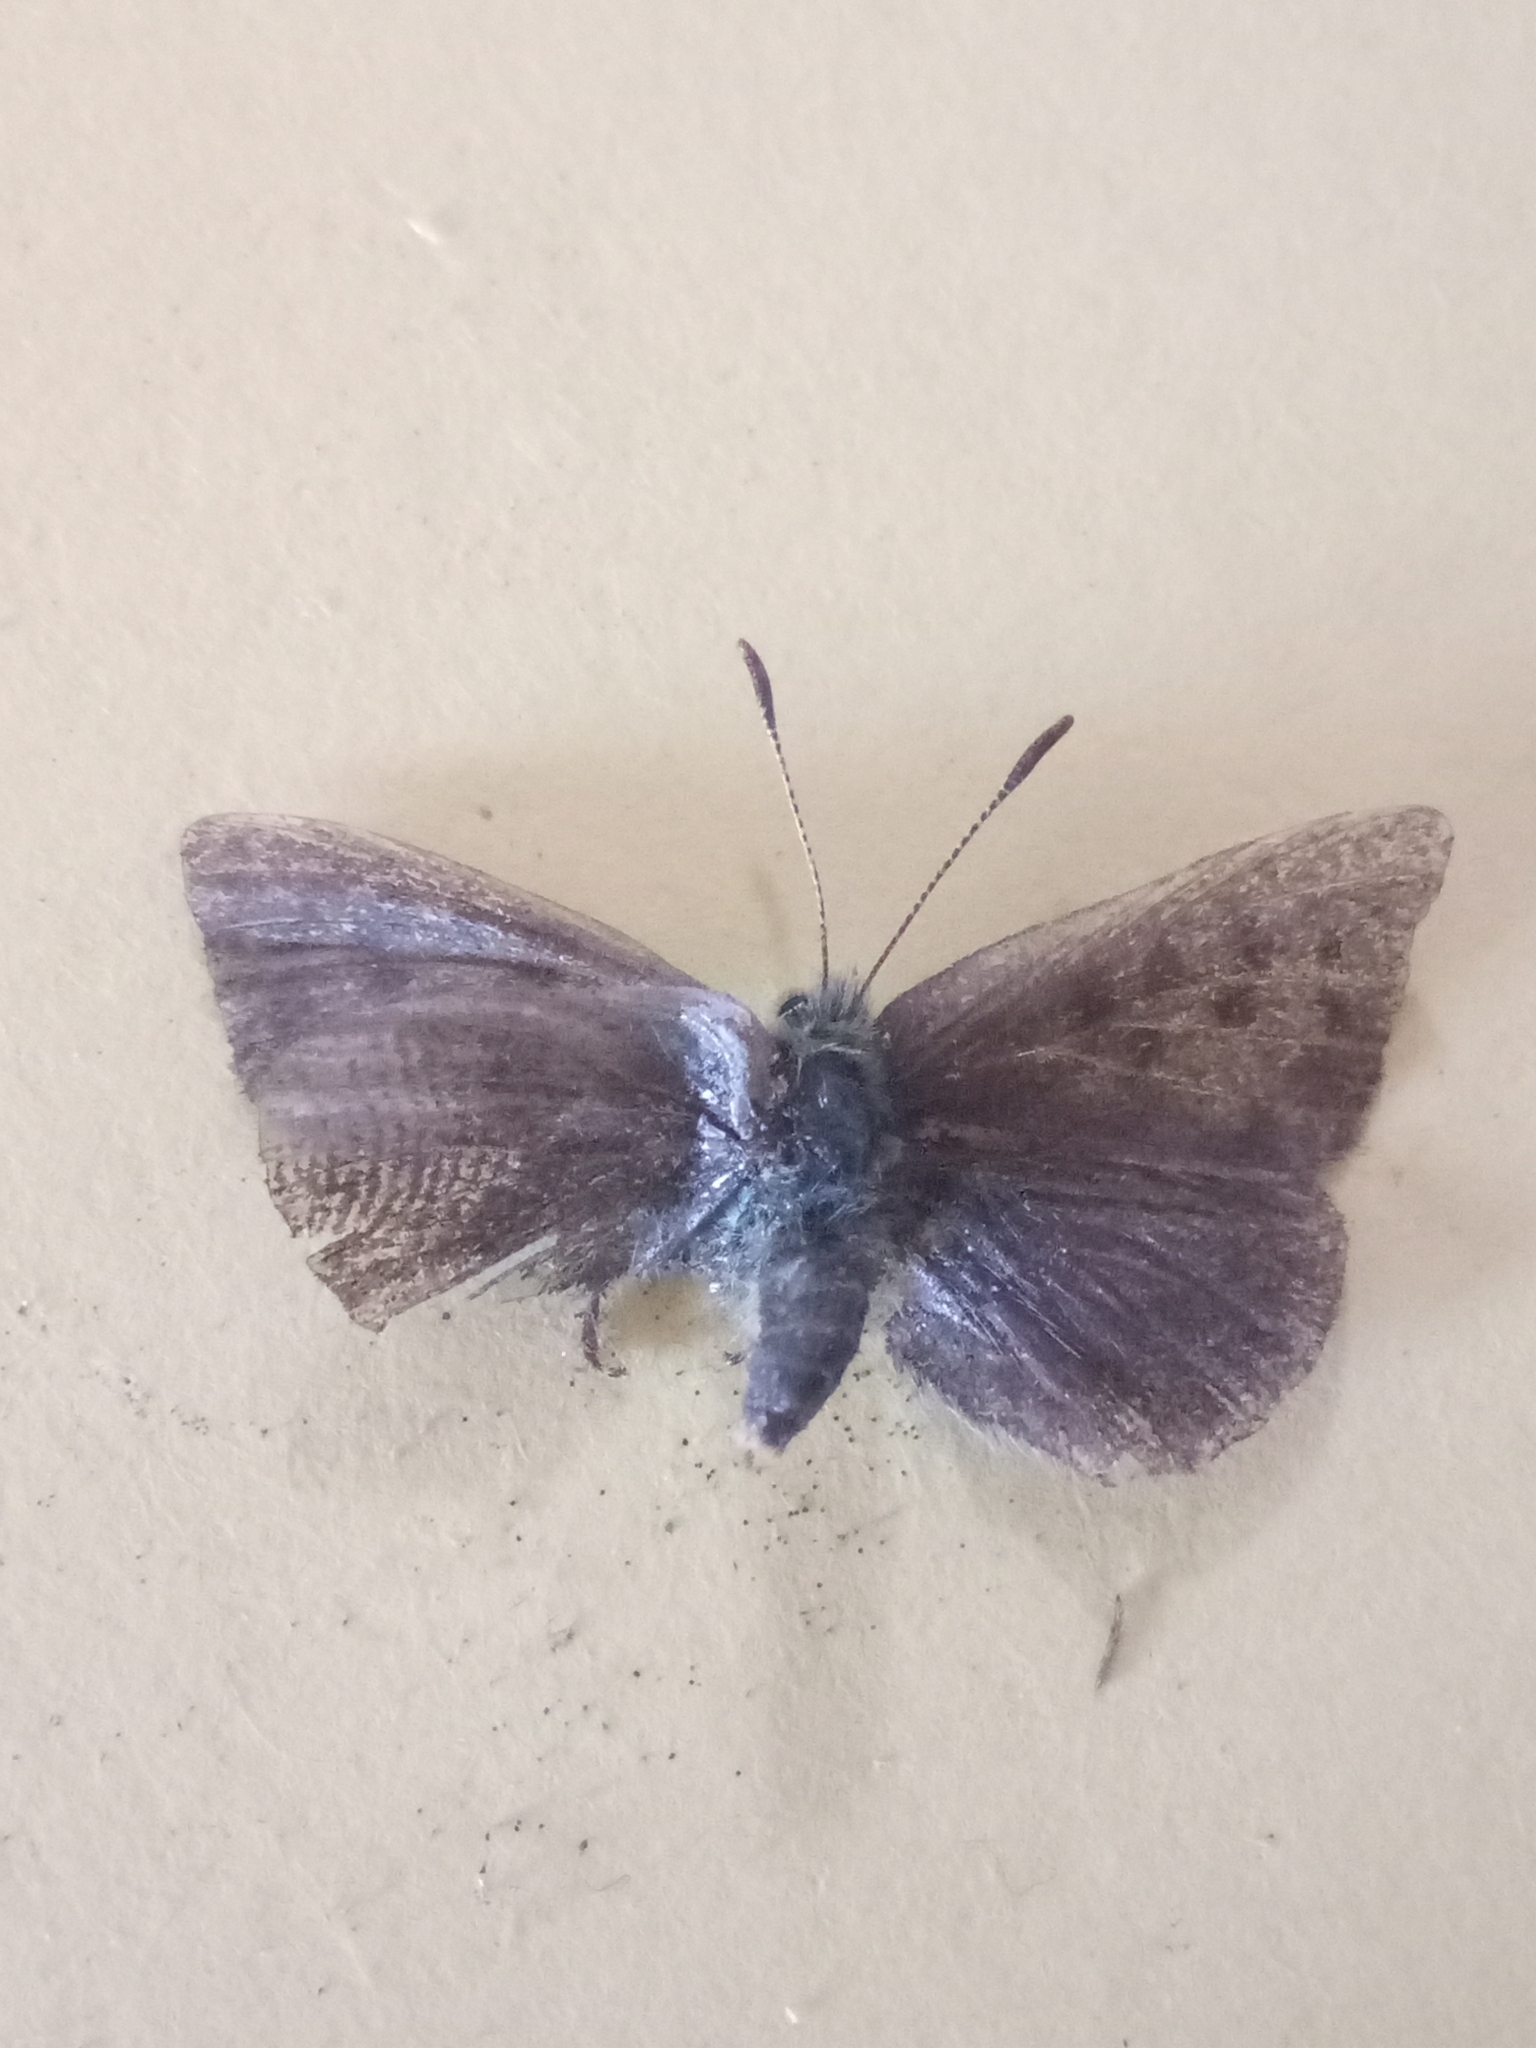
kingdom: Animalia
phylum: Arthropoda
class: Insecta
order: Lepidoptera
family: Lycaenidae
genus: Tomares
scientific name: Tomares ballus
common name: Provence hairstreak
